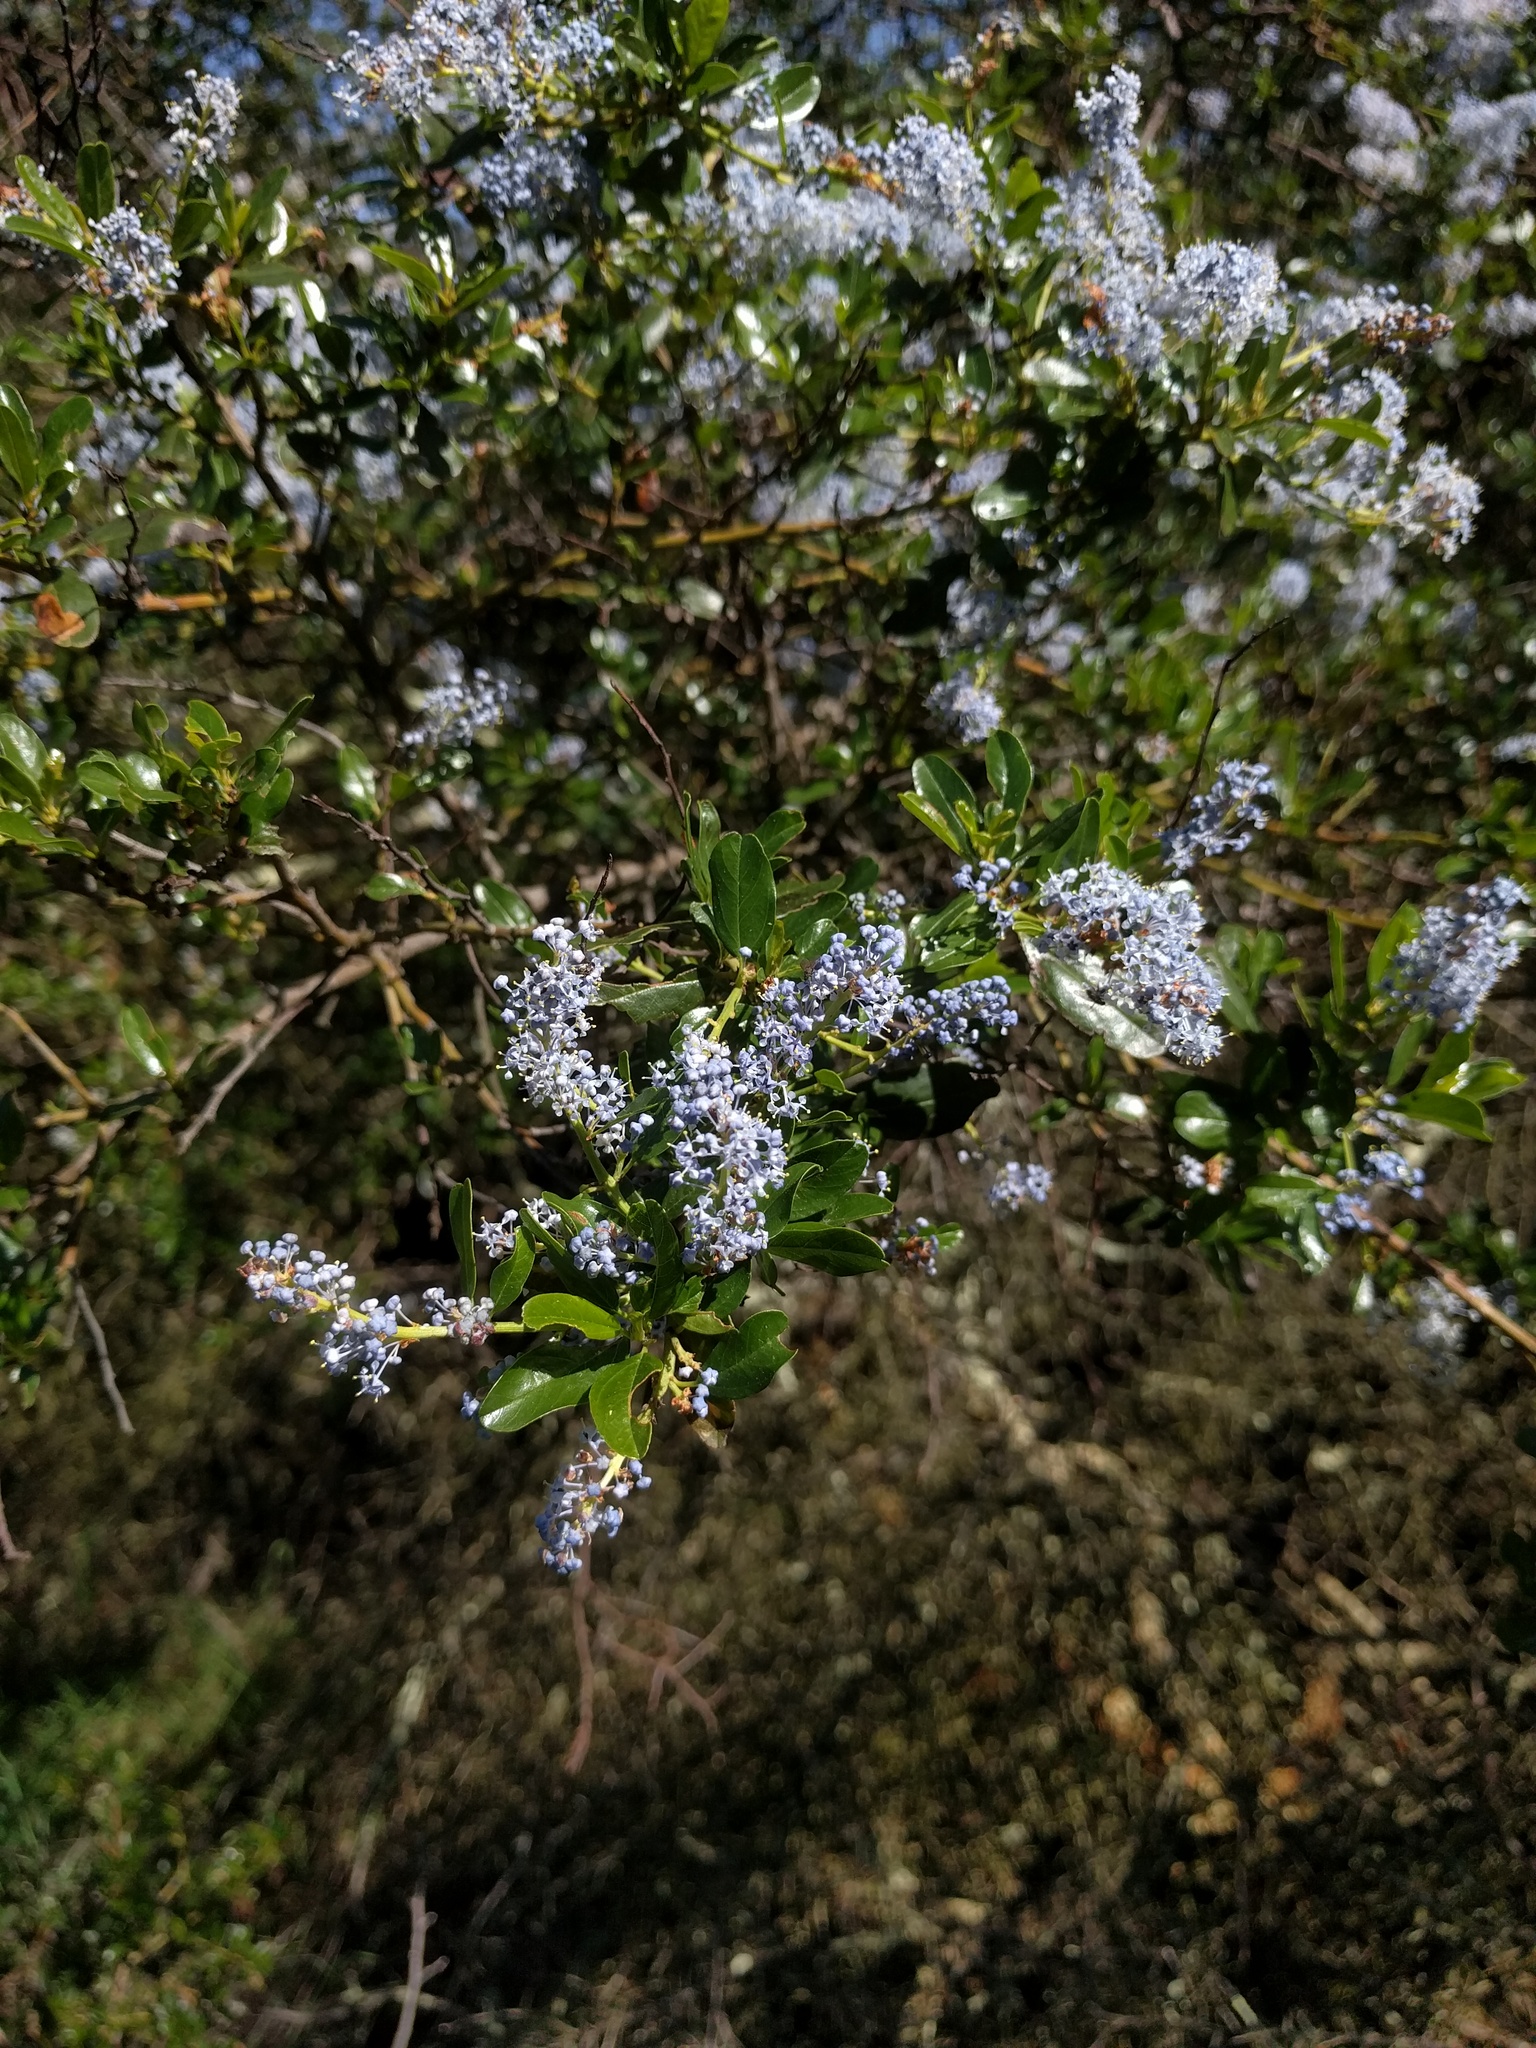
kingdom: Plantae
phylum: Tracheophyta
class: Magnoliopsida
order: Rosales
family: Rhamnaceae
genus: Ceanothus
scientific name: Ceanothus spinosus
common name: Greenbark whitethorn
